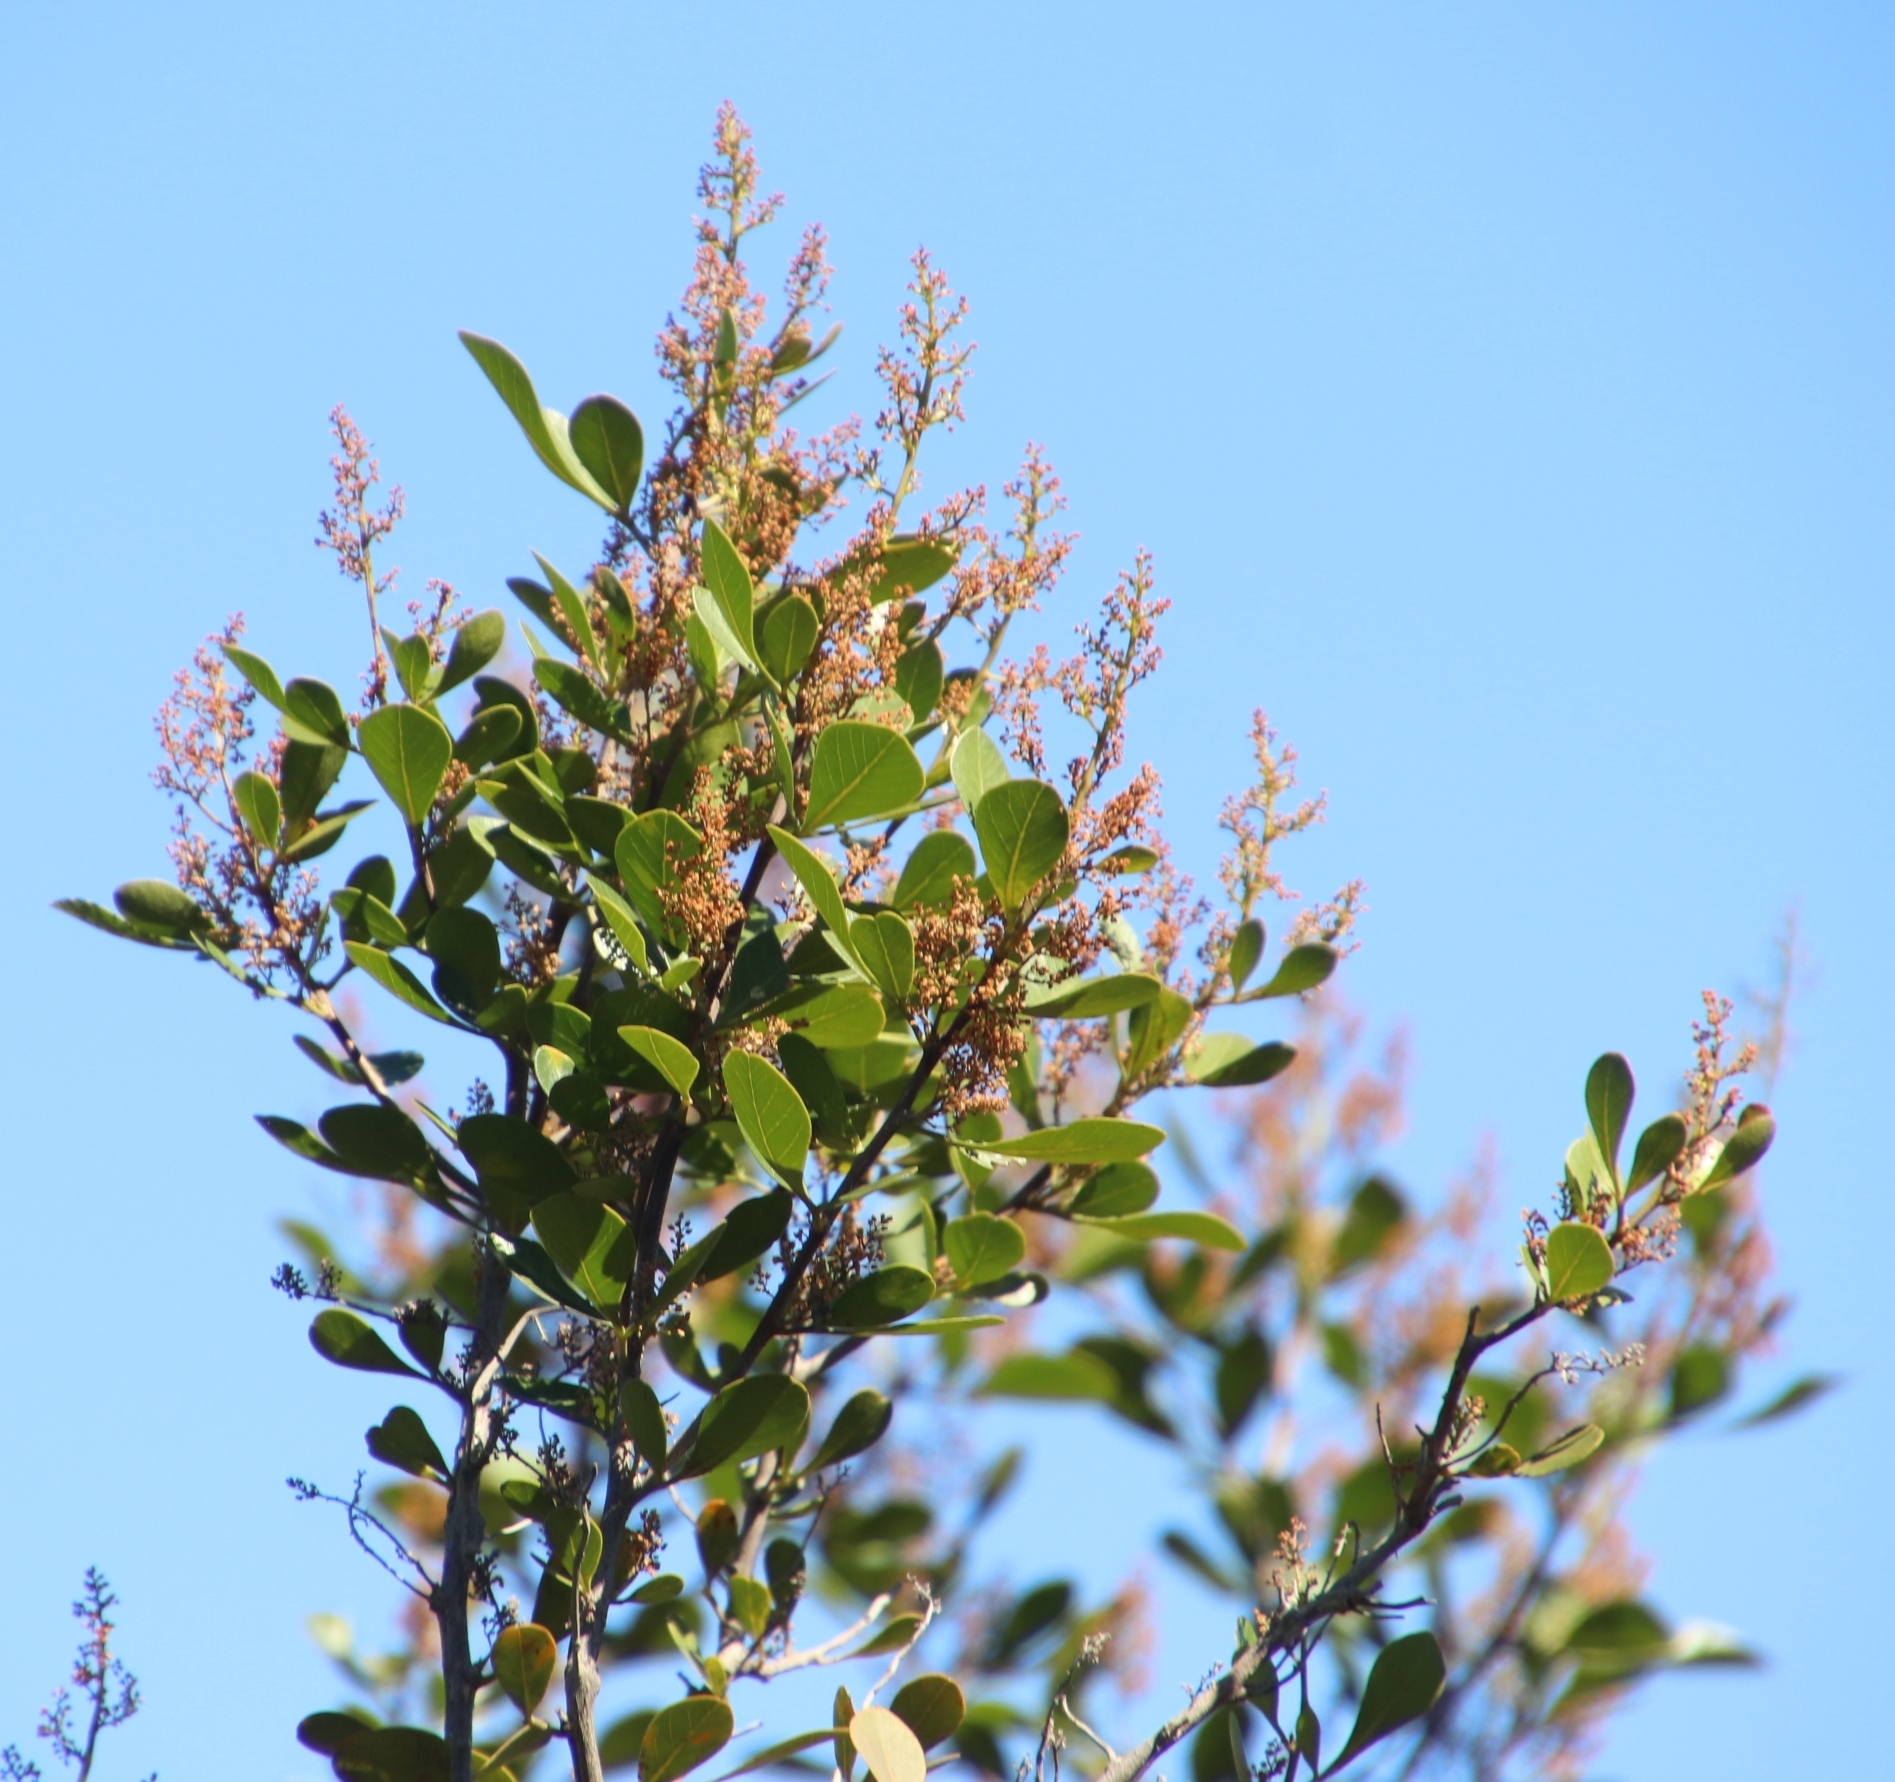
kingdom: Plantae
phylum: Tracheophyta
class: Magnoliopsida
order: Sapindales
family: Anacardiaceae
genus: Searsia
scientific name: Searsia lucida
